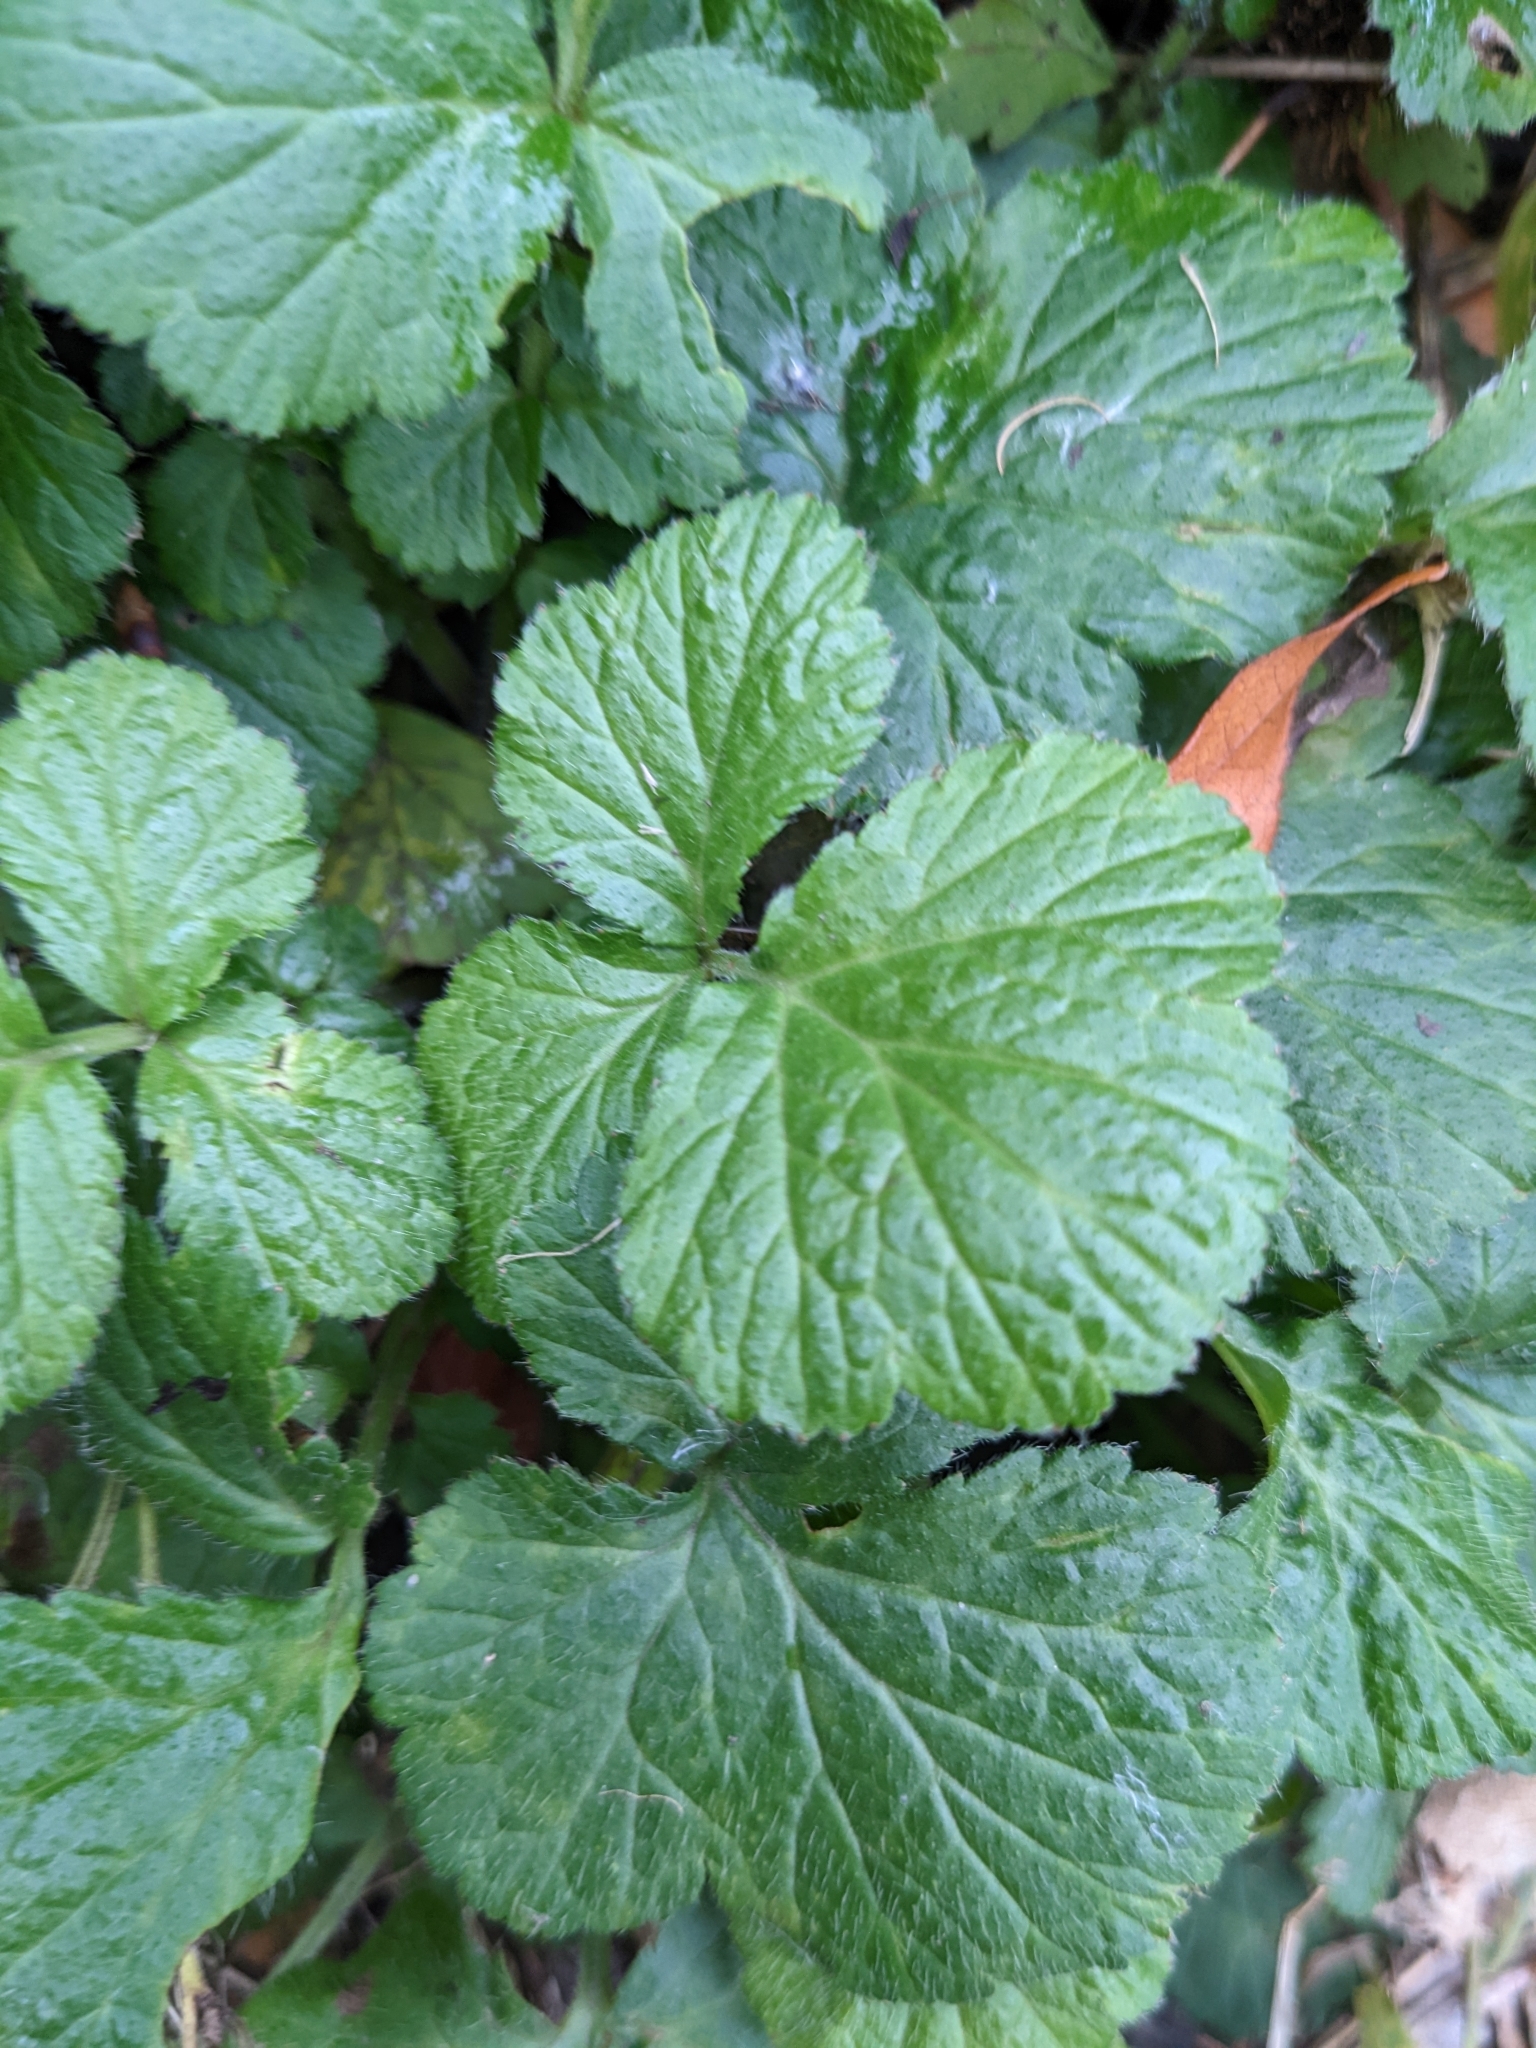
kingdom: Plantae
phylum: Tracheophyta
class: Magnoliopsida
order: Rosales
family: Rosaceae
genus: Geum
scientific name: Geum urbanum
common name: Wood avens
